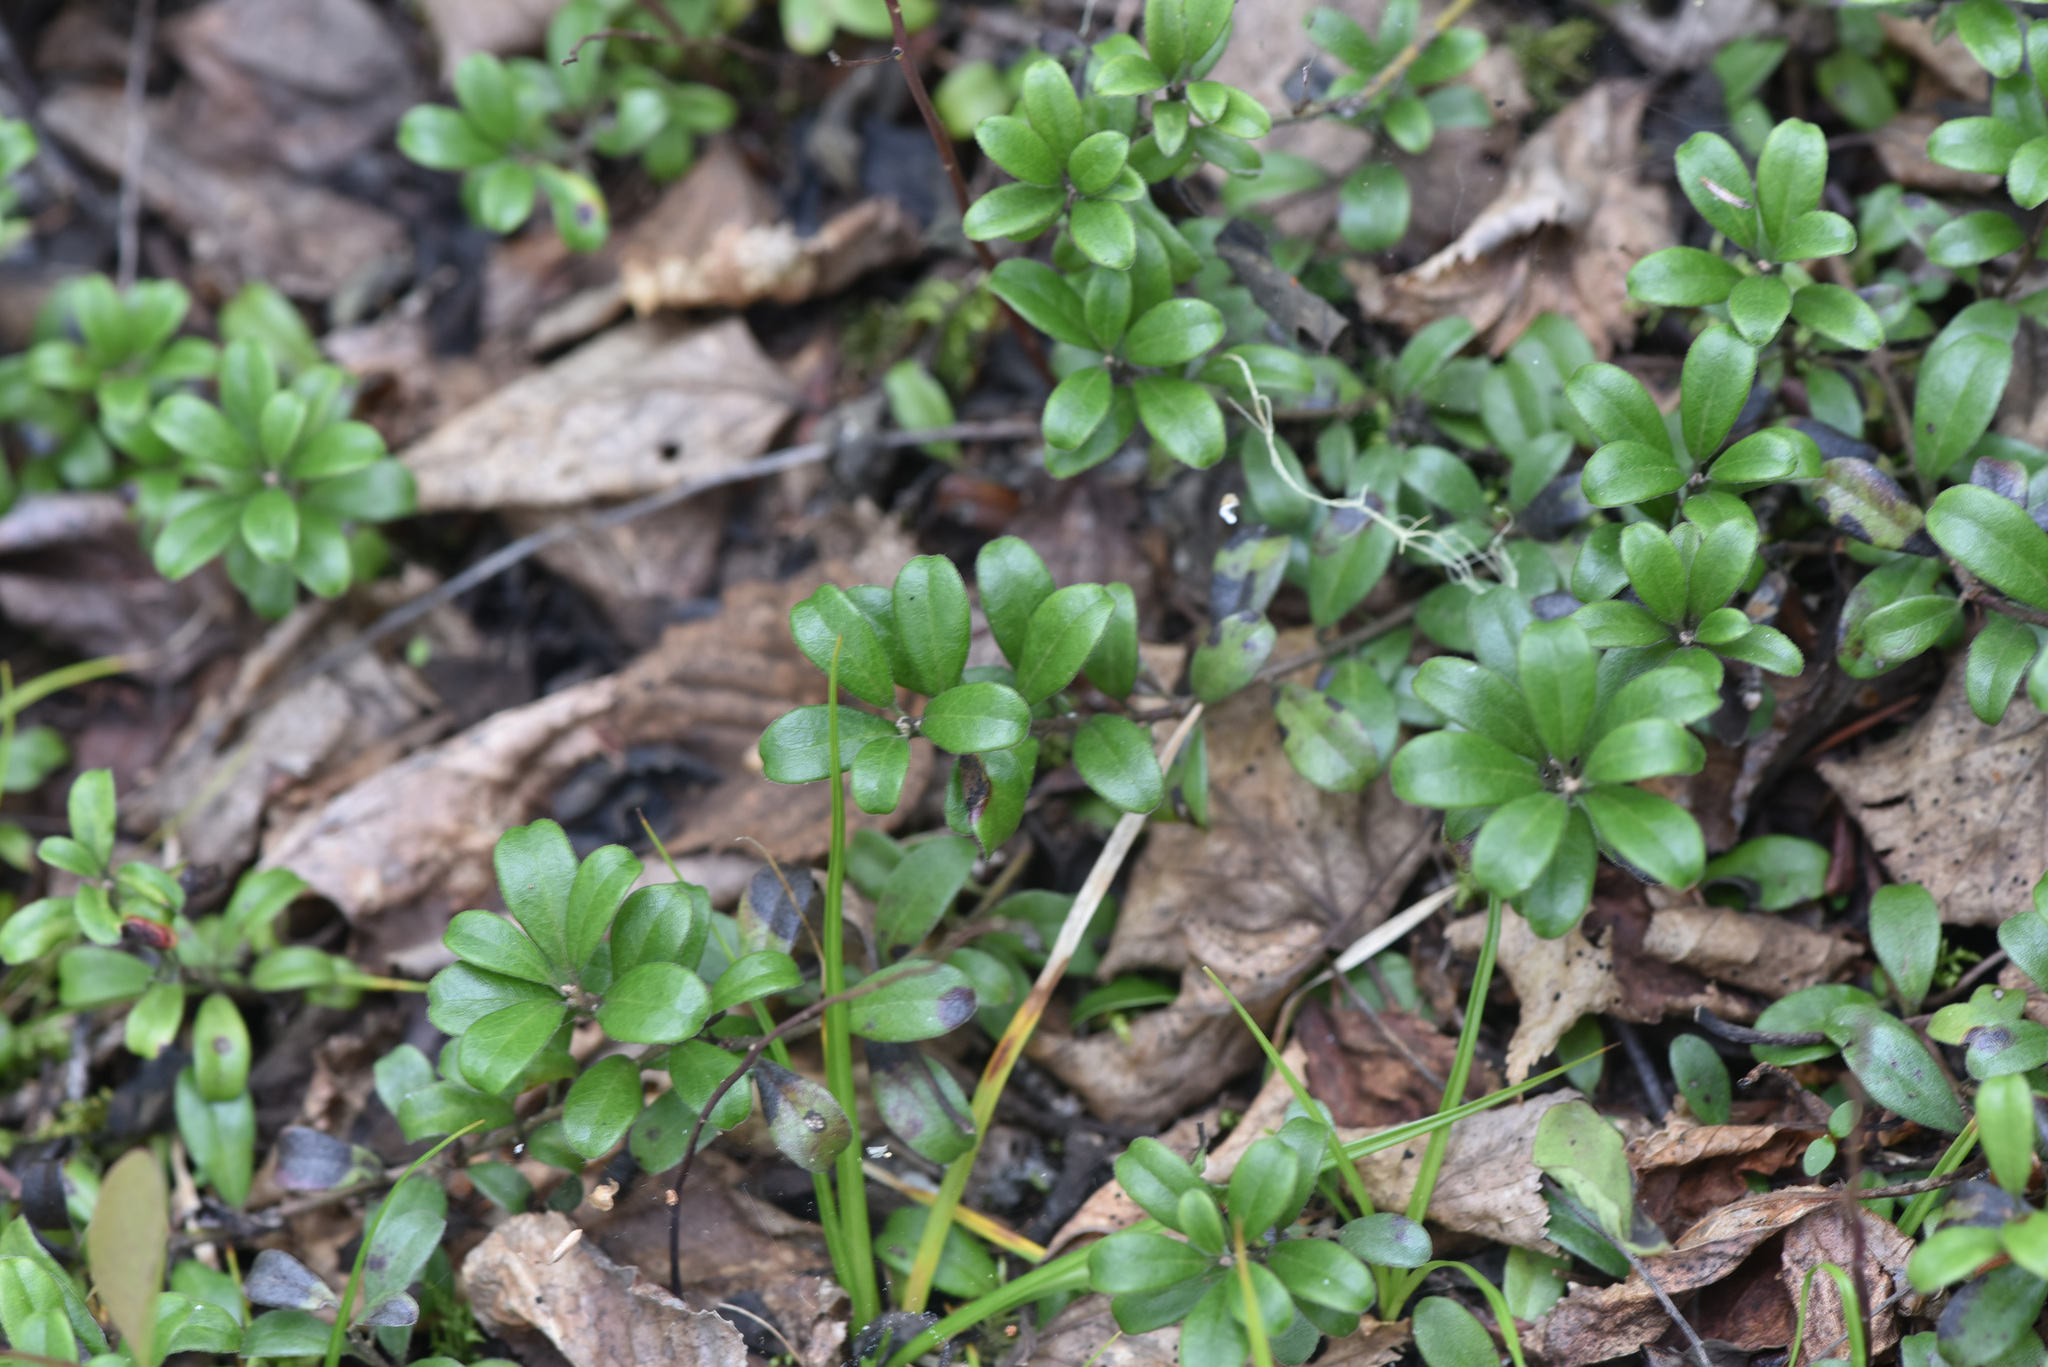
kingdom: Plantae
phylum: Tracheophyta
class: Magnoliopsida
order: Ericales
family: Ericaceae
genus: Arctostaphylos
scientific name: Arctostaphylos uva-ursi
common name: Bearberry
